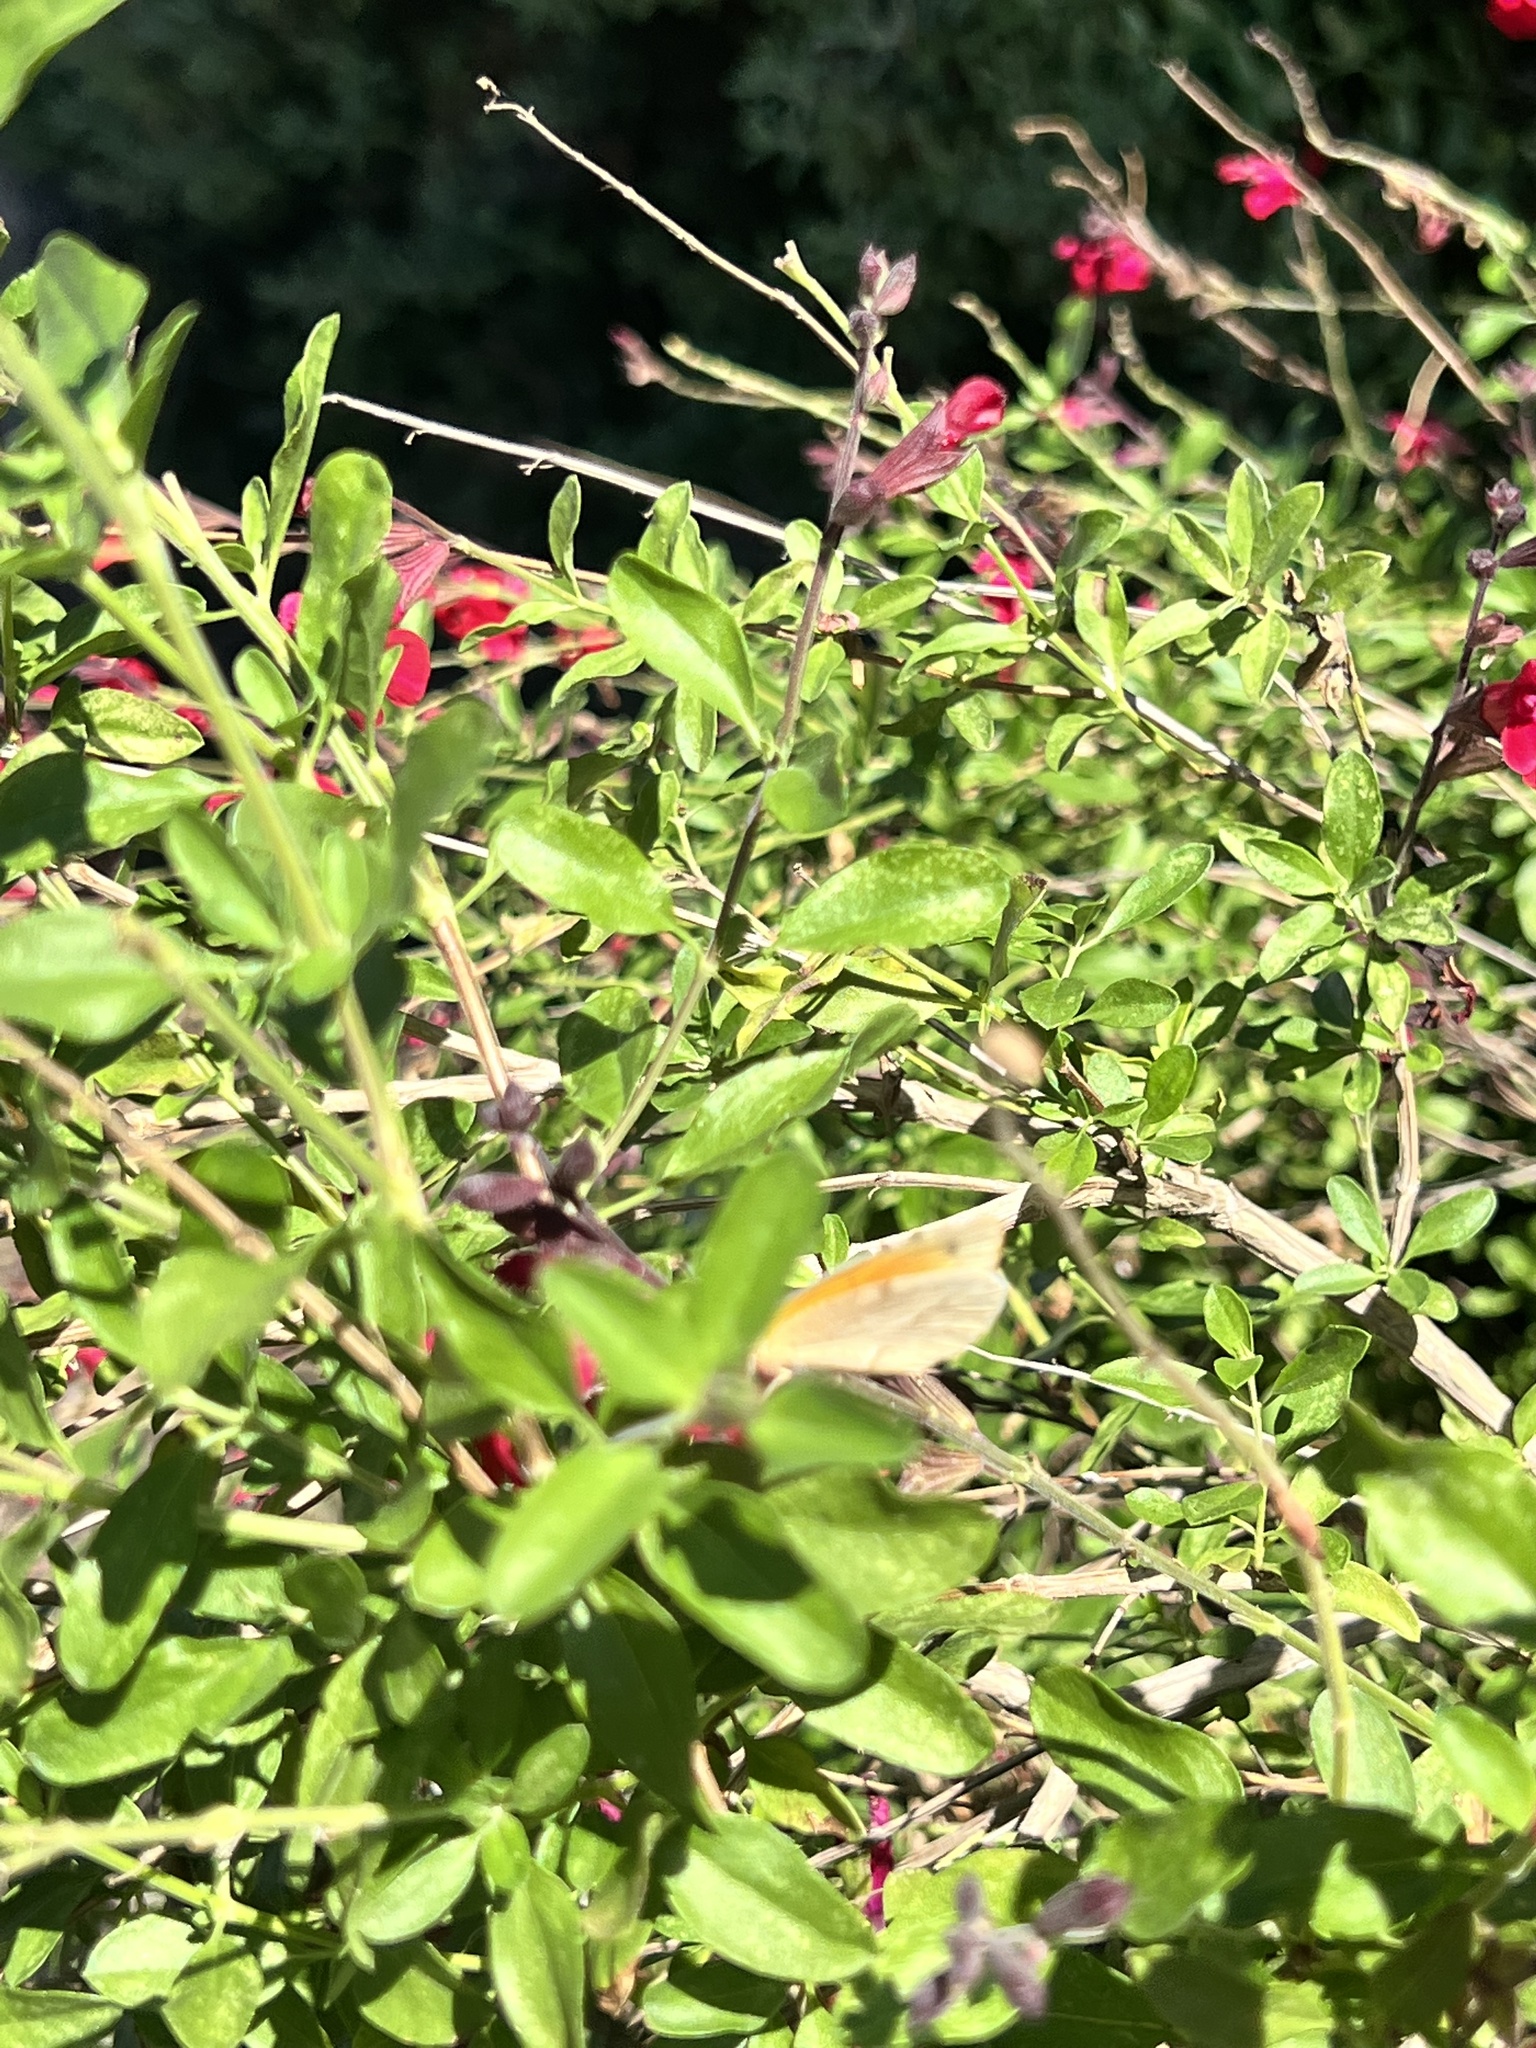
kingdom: Animalia
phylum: Arthropoda
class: Insecta
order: Lepidoptera
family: Pieridae
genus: Abaeis
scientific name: Abaeis nicippe
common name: Sleepy orange
